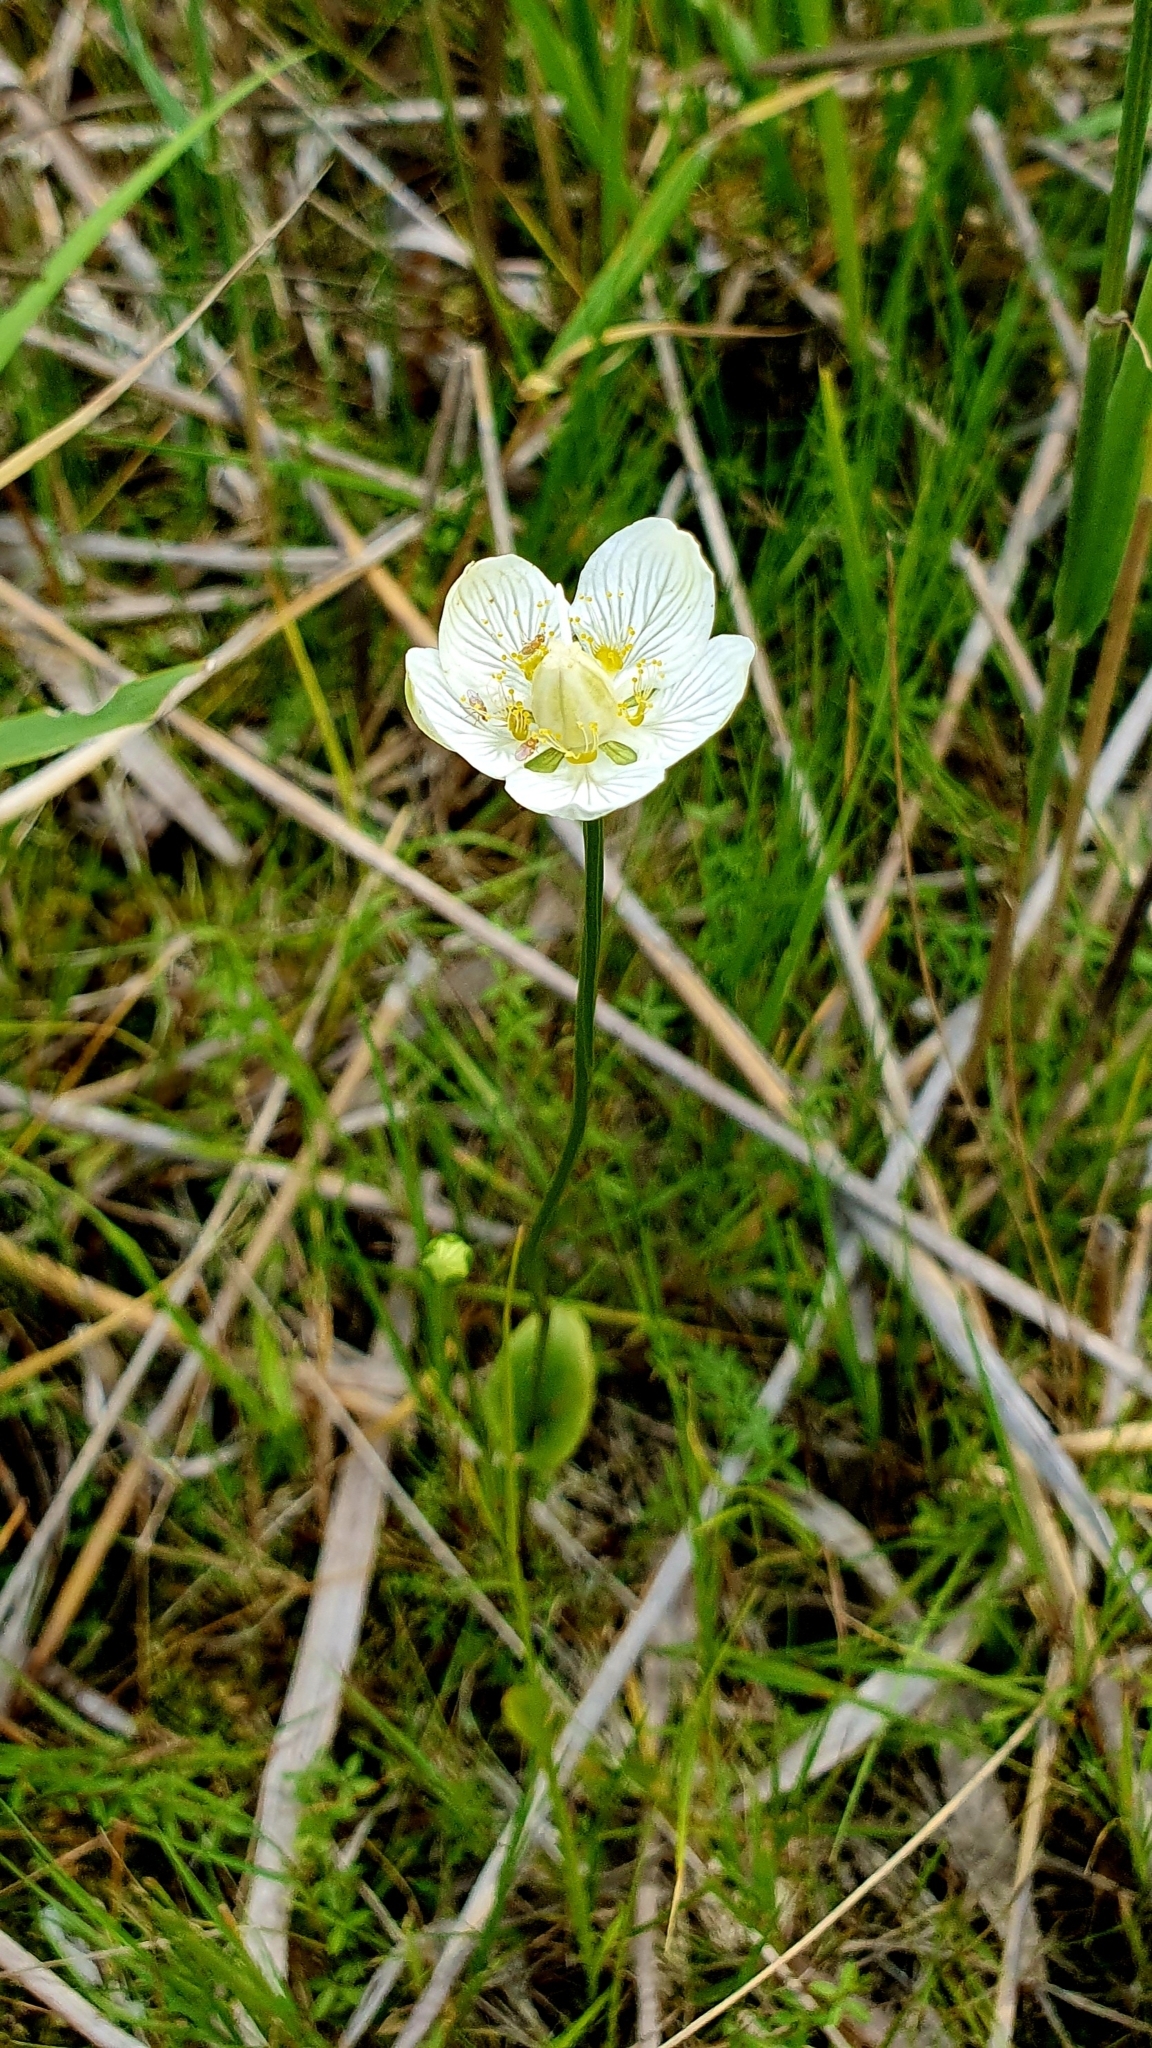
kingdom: Plantae
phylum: Tracheophyta
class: Magnoliopsida
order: Celastrales
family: Parnassiaceae
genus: Parnassia
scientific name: Parnassia palustris
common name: Grass-of-parnassus
